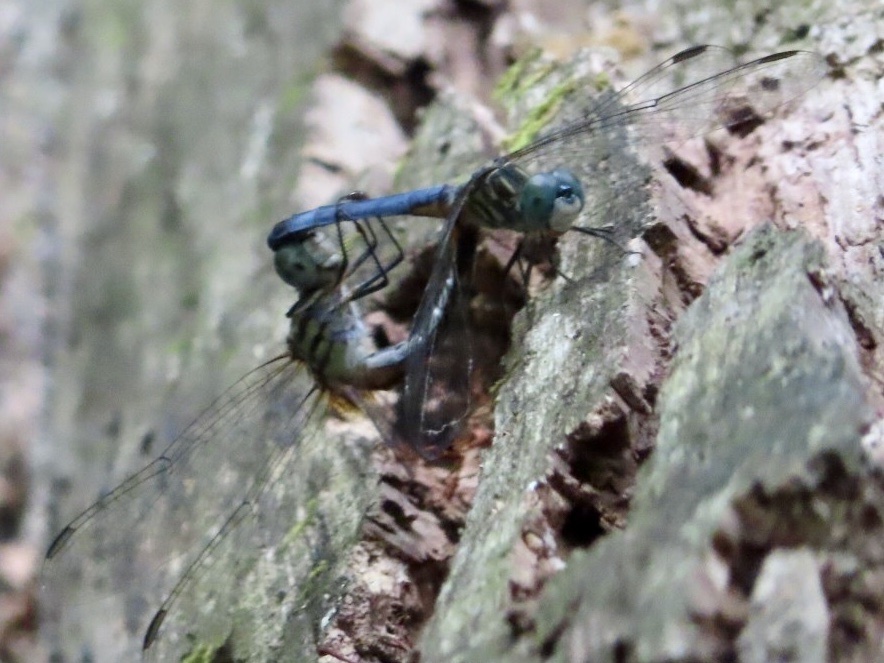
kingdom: Animalia
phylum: Arthropoda
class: Insecta
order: Odonata
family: Libellulidae
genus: Pachydiplax
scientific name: Pachydiplax longipennis
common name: Blue dasher
